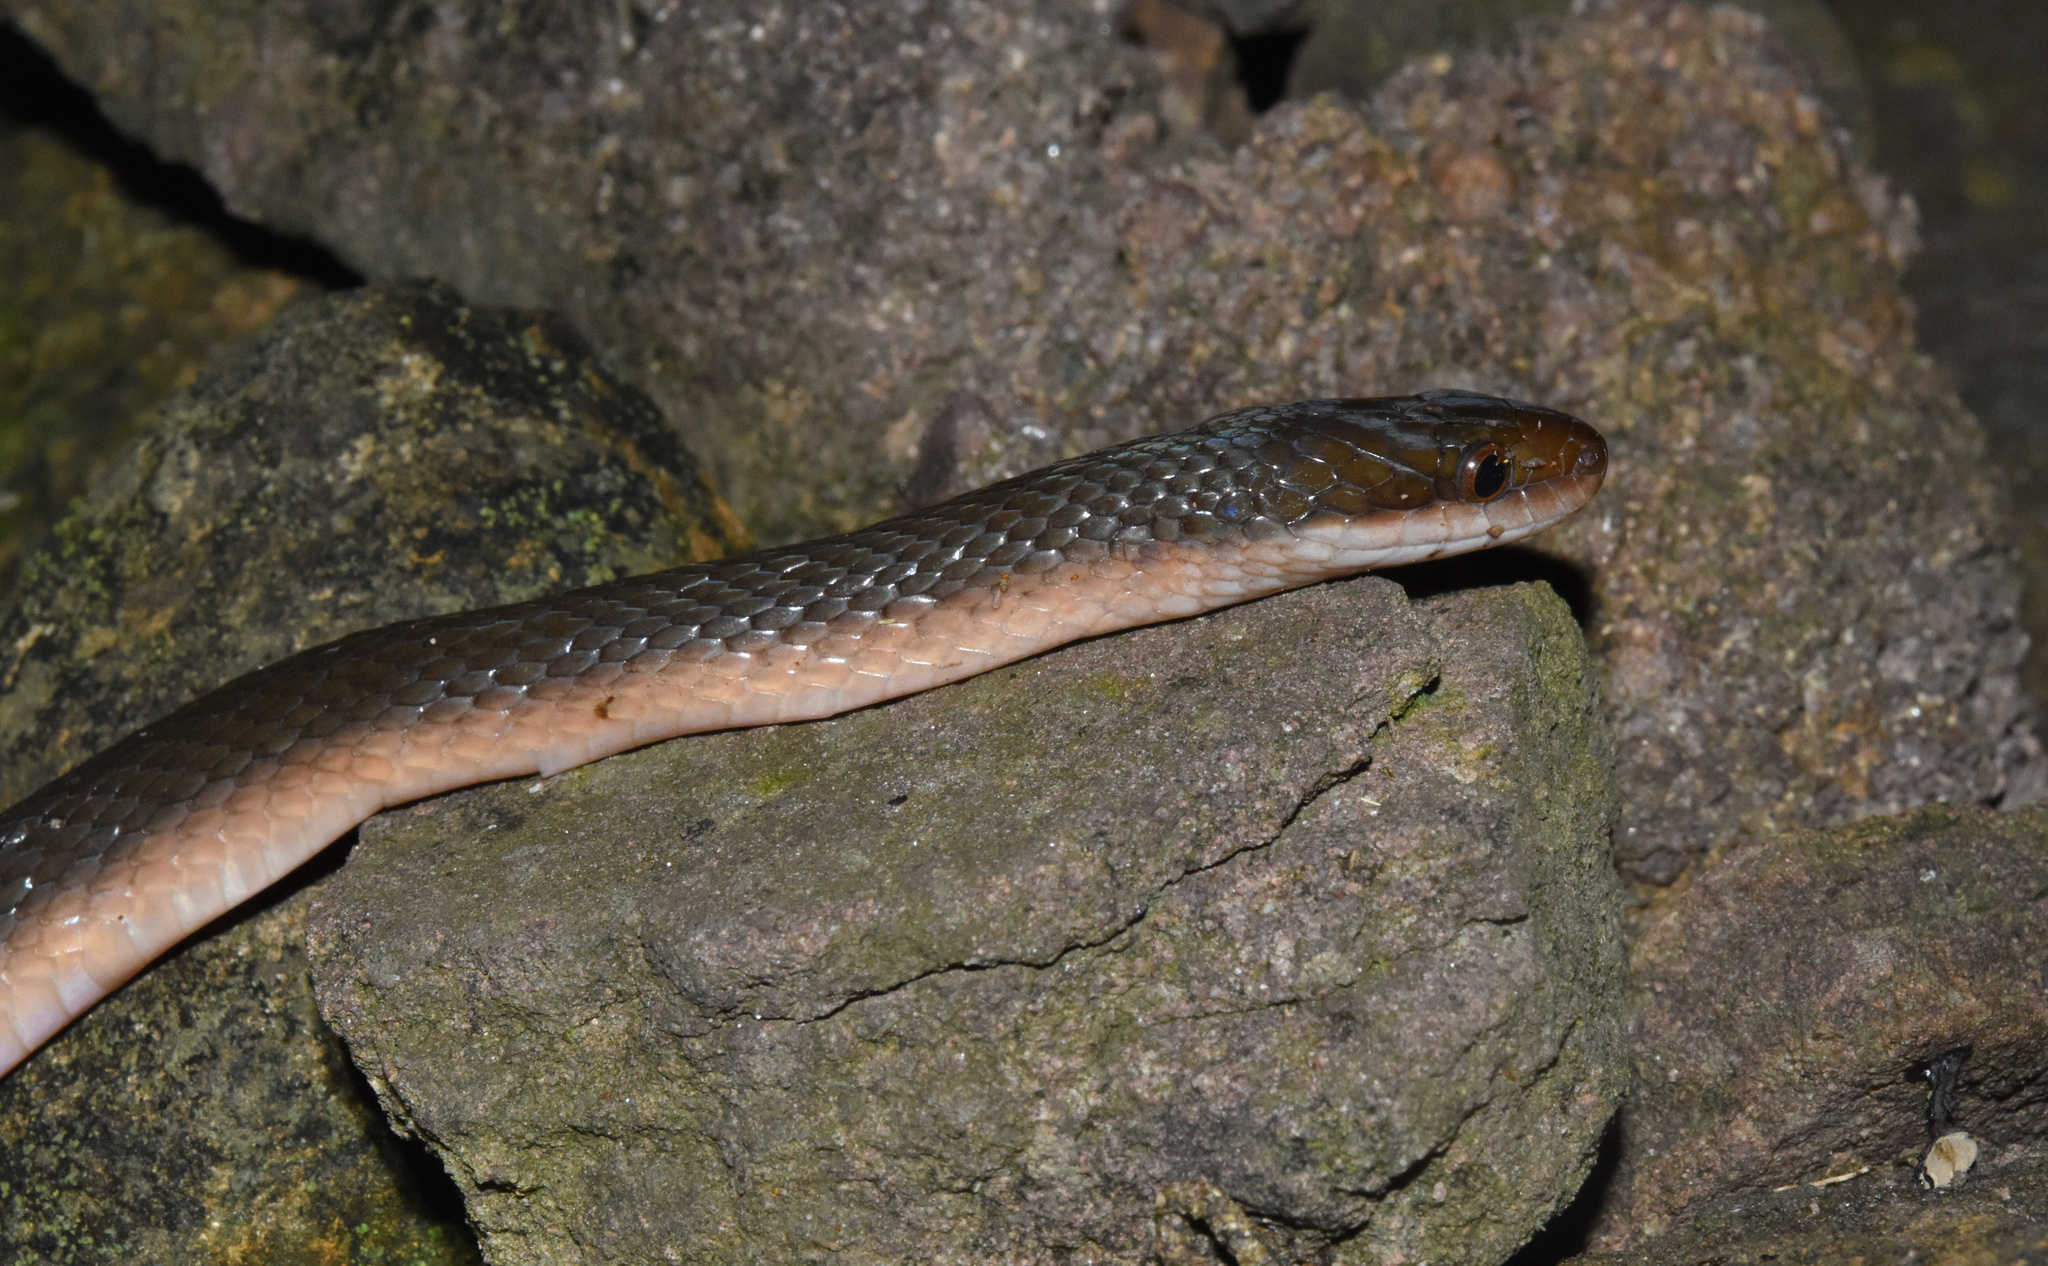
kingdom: Animalia
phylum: Chordata
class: Squamata
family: Lamprophiidae
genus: Lycodonomorphus
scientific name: Lycodonomorphus rufulus
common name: Brown water snake
